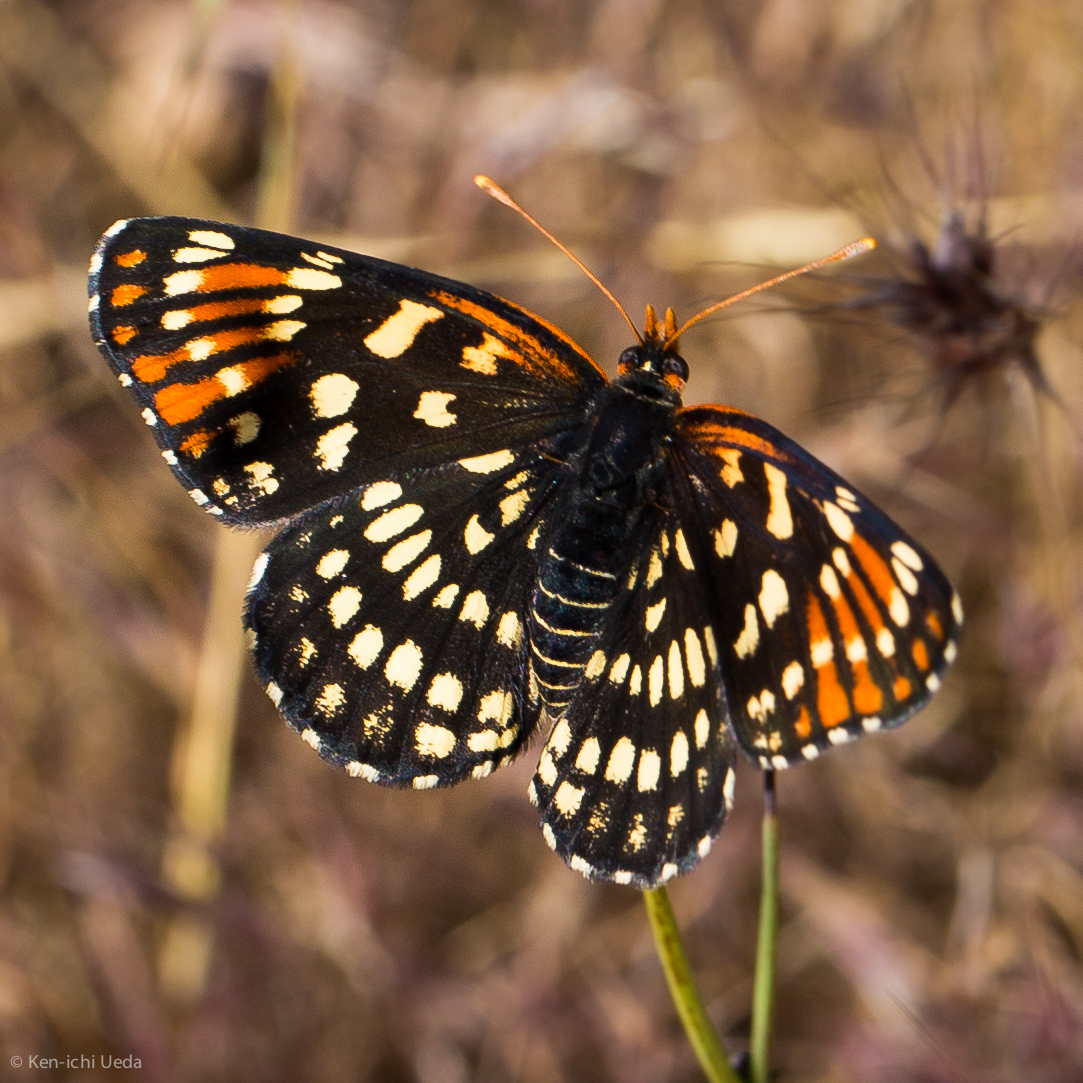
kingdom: Animalia
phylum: Arthropoda
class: Insecta
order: Lepidoptera
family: Nymphalidae
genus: Thessalia
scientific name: Thessalia leanira
